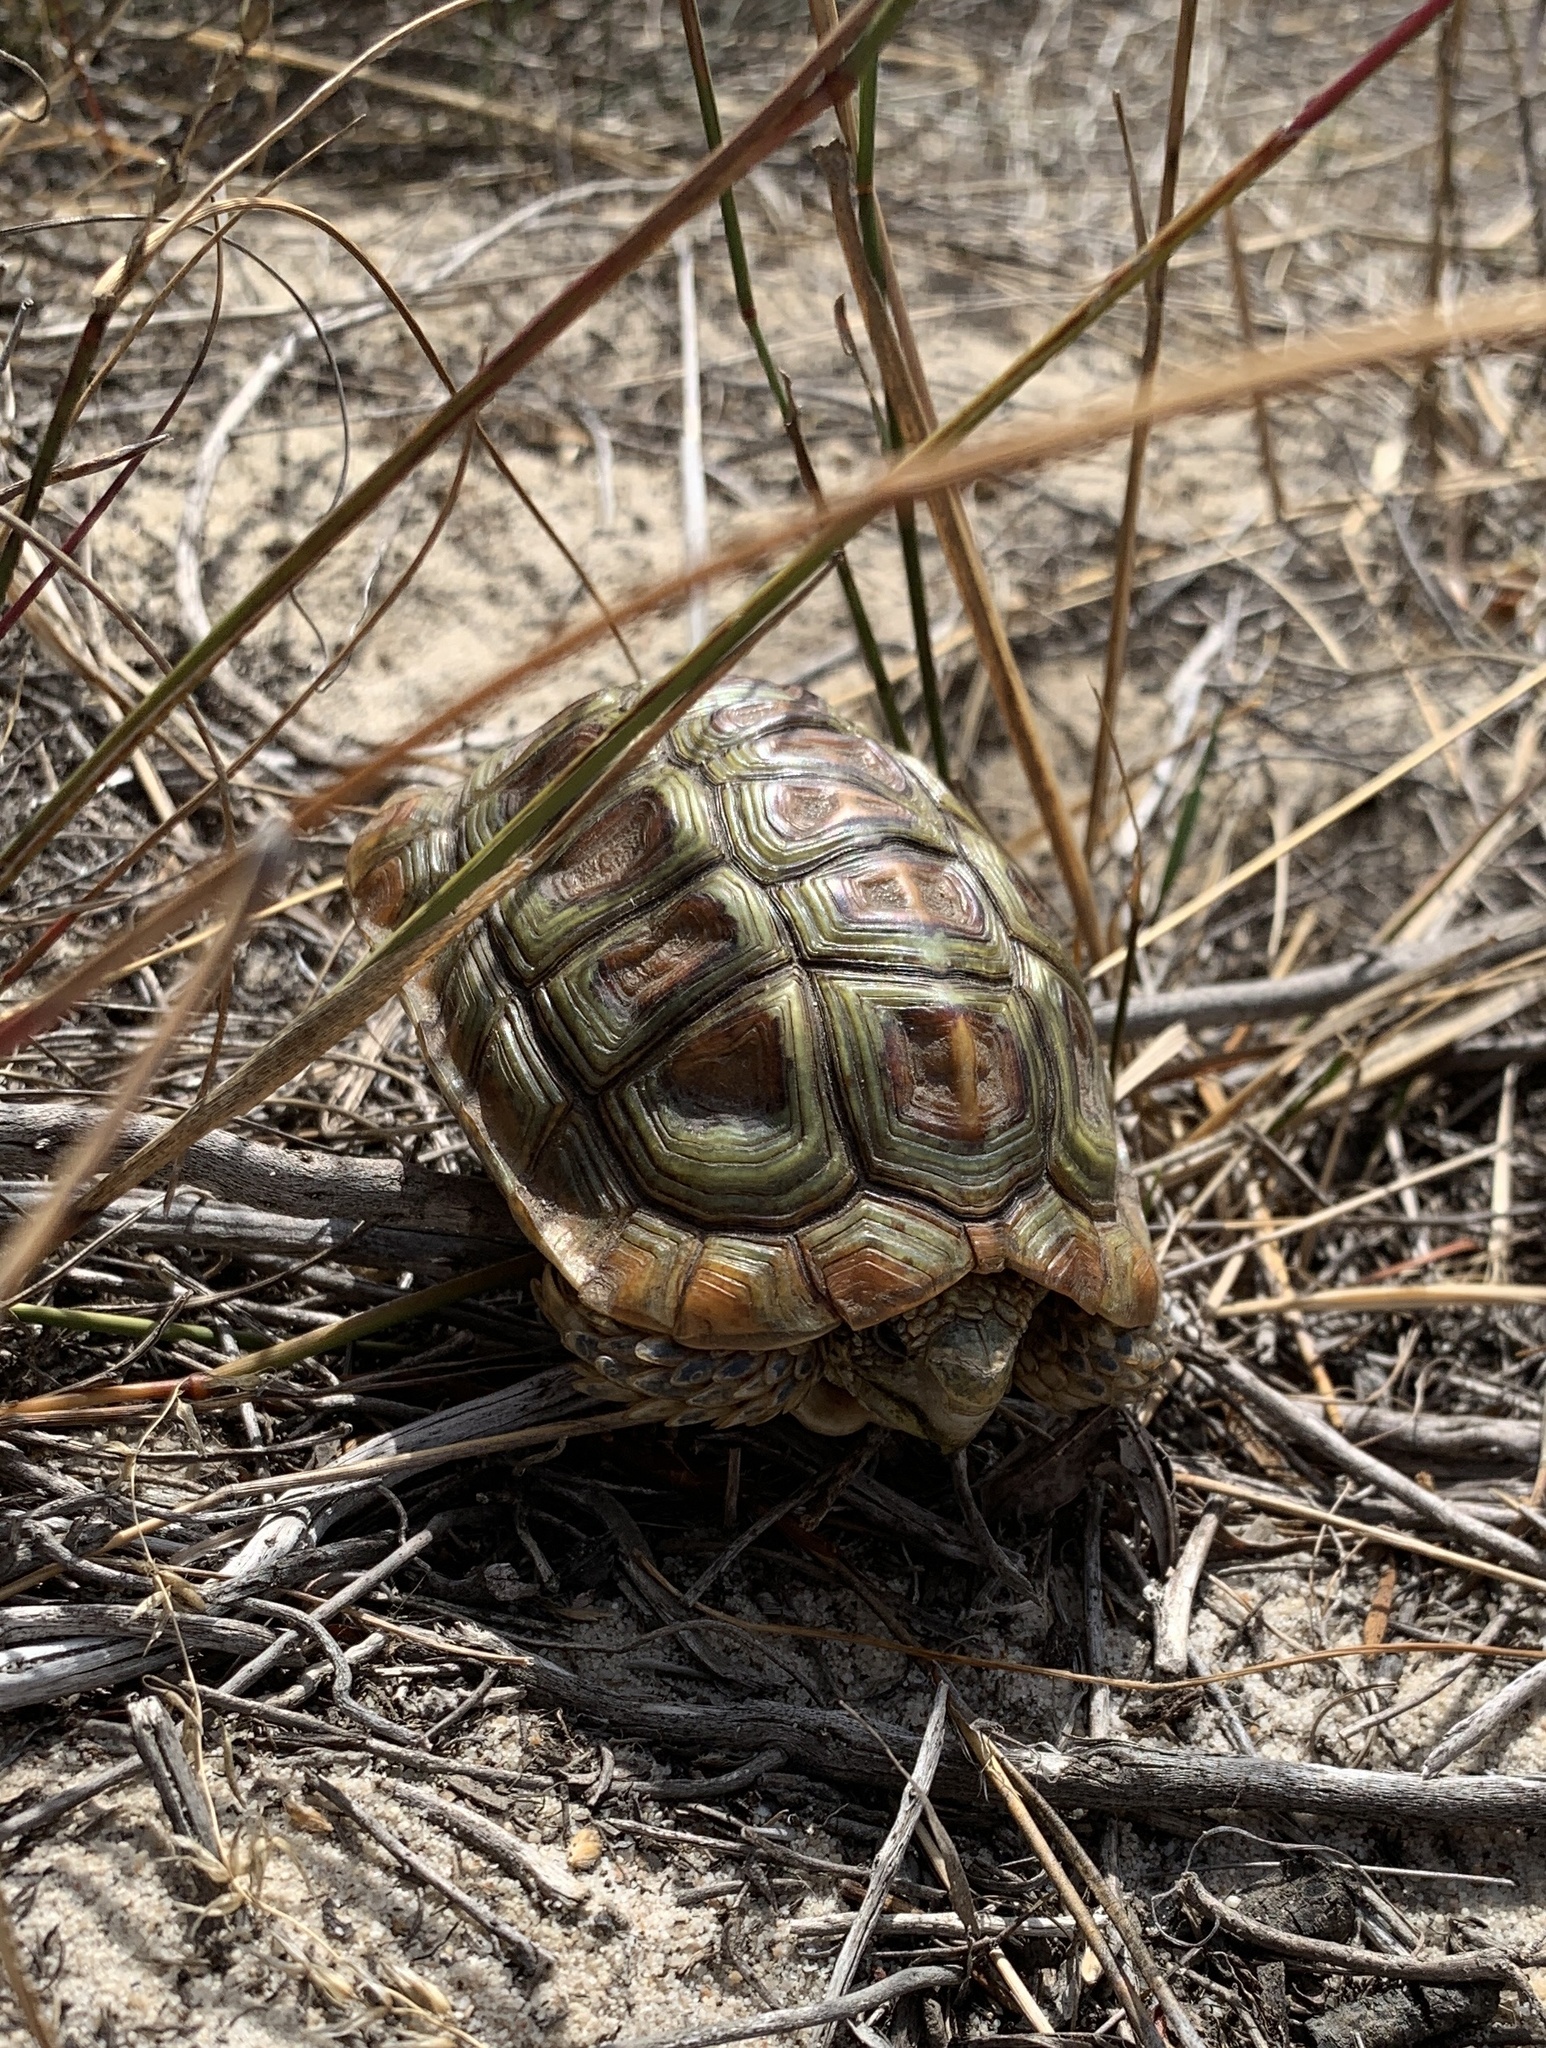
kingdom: Animalia
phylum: Chordata
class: Testudines
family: Testudinidae
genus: Homopus
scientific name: Homopus areolatus
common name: Parrot-beaked tortoise
